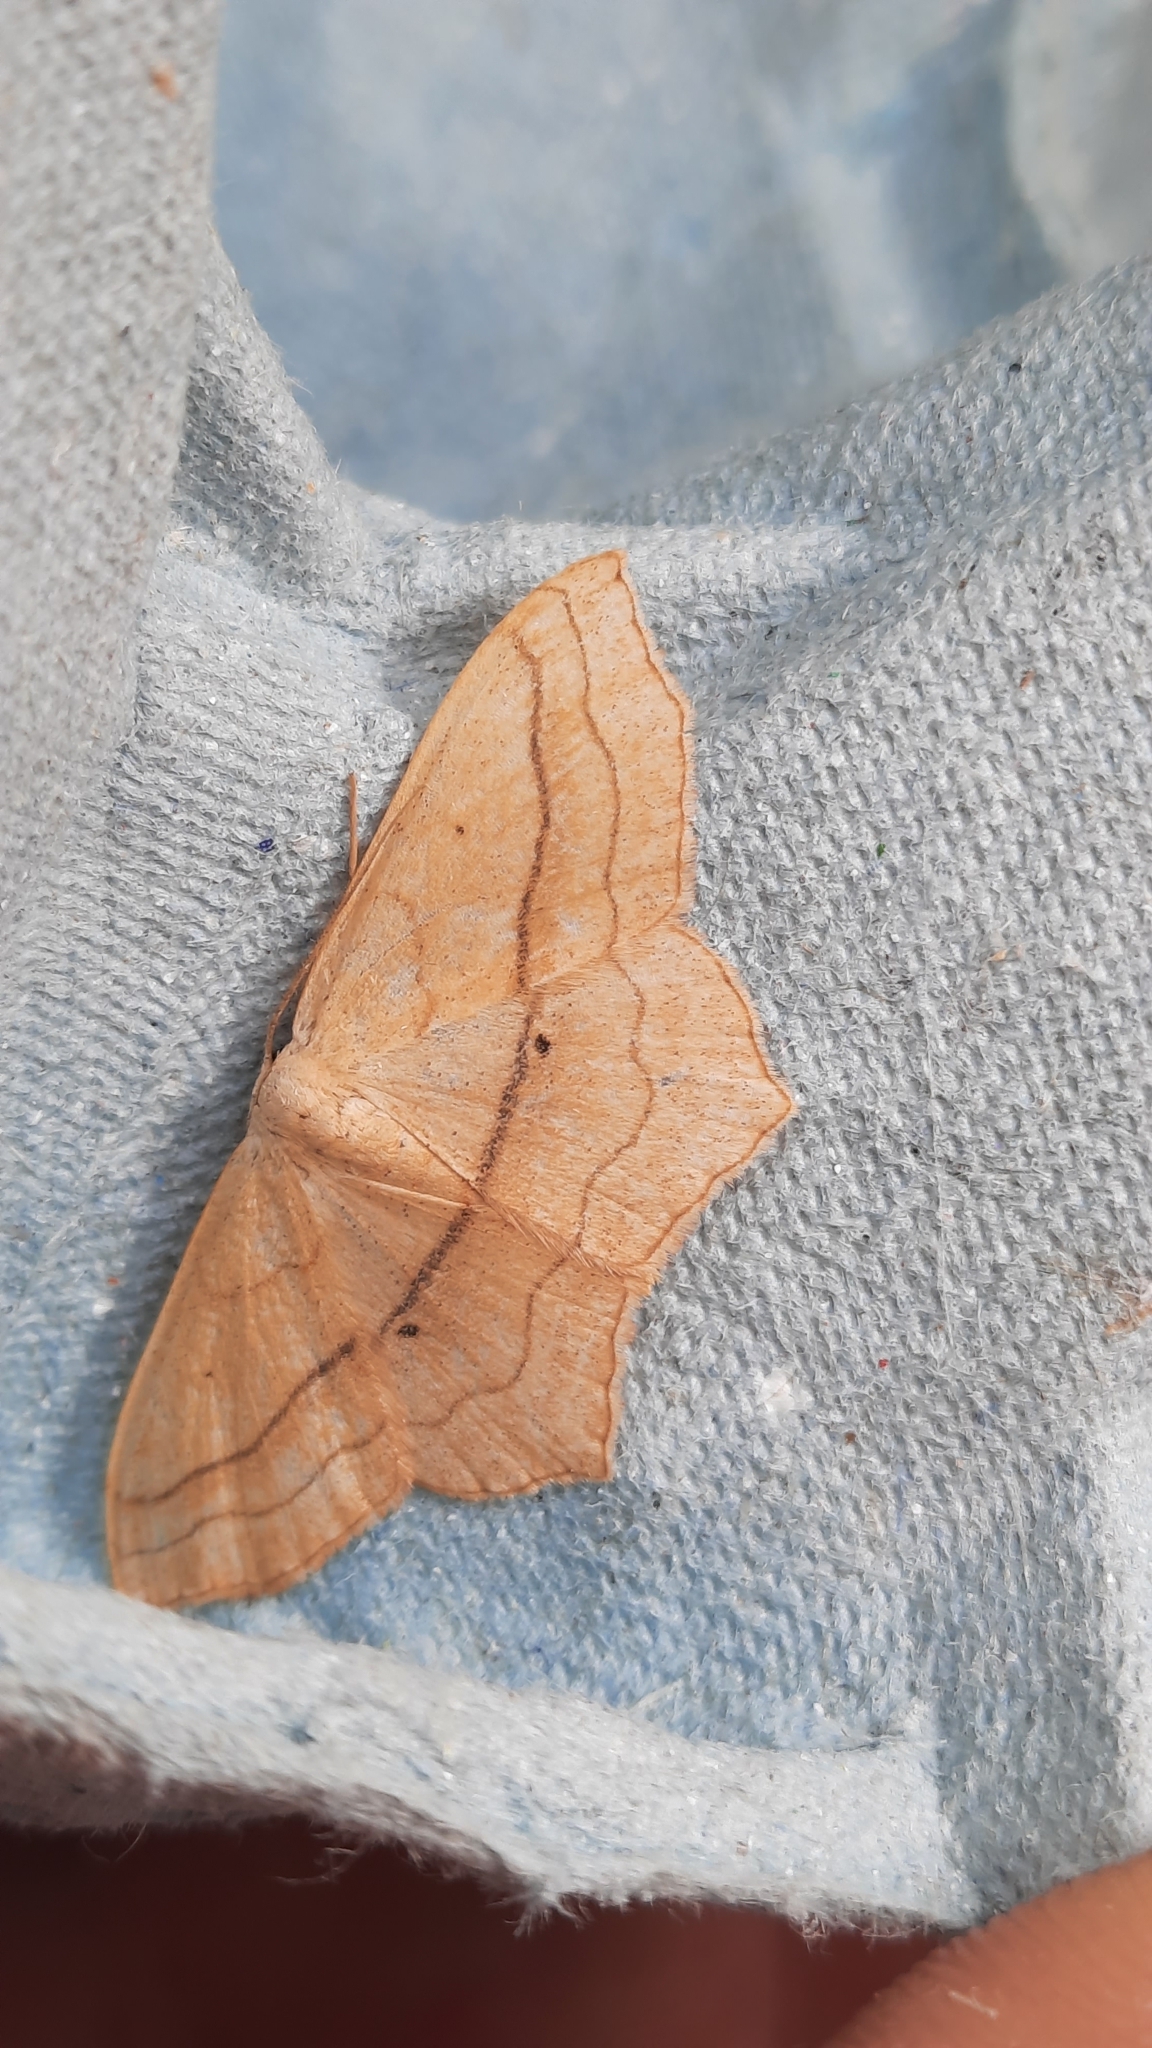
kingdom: Animalia
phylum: Arthropoda
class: Insecta
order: Lepidoptera
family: Geometridae
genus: Scopula
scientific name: Scopula imitaria
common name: Small blood-vein
